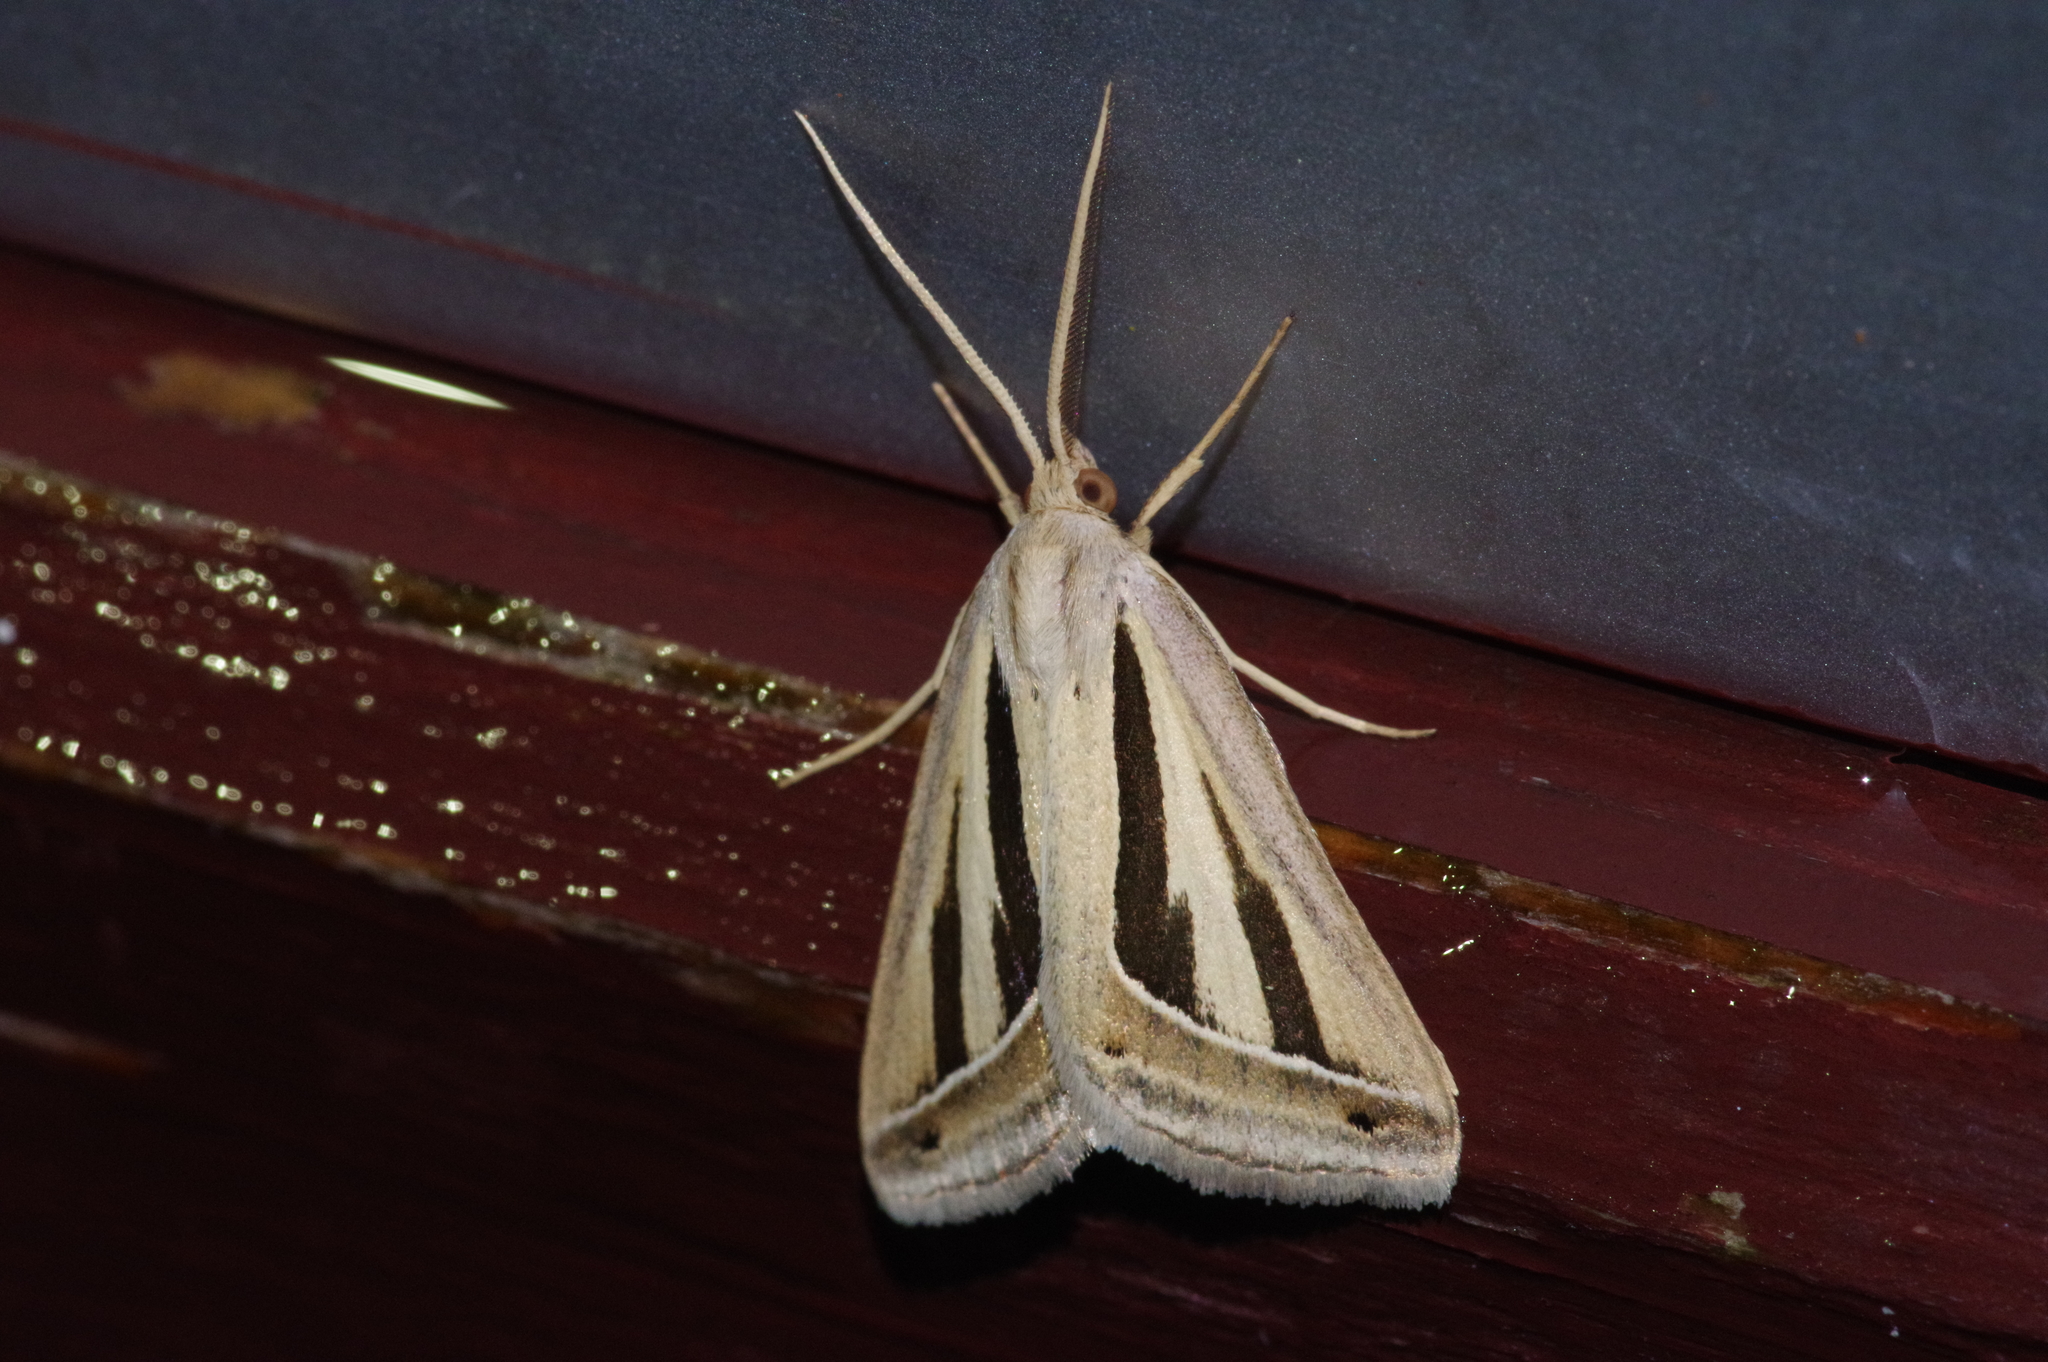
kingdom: Animalia
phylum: Arthropoda
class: Insecta
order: Lepidoptera
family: Erebidae
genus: Melapia
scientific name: Melapia bifasciata
